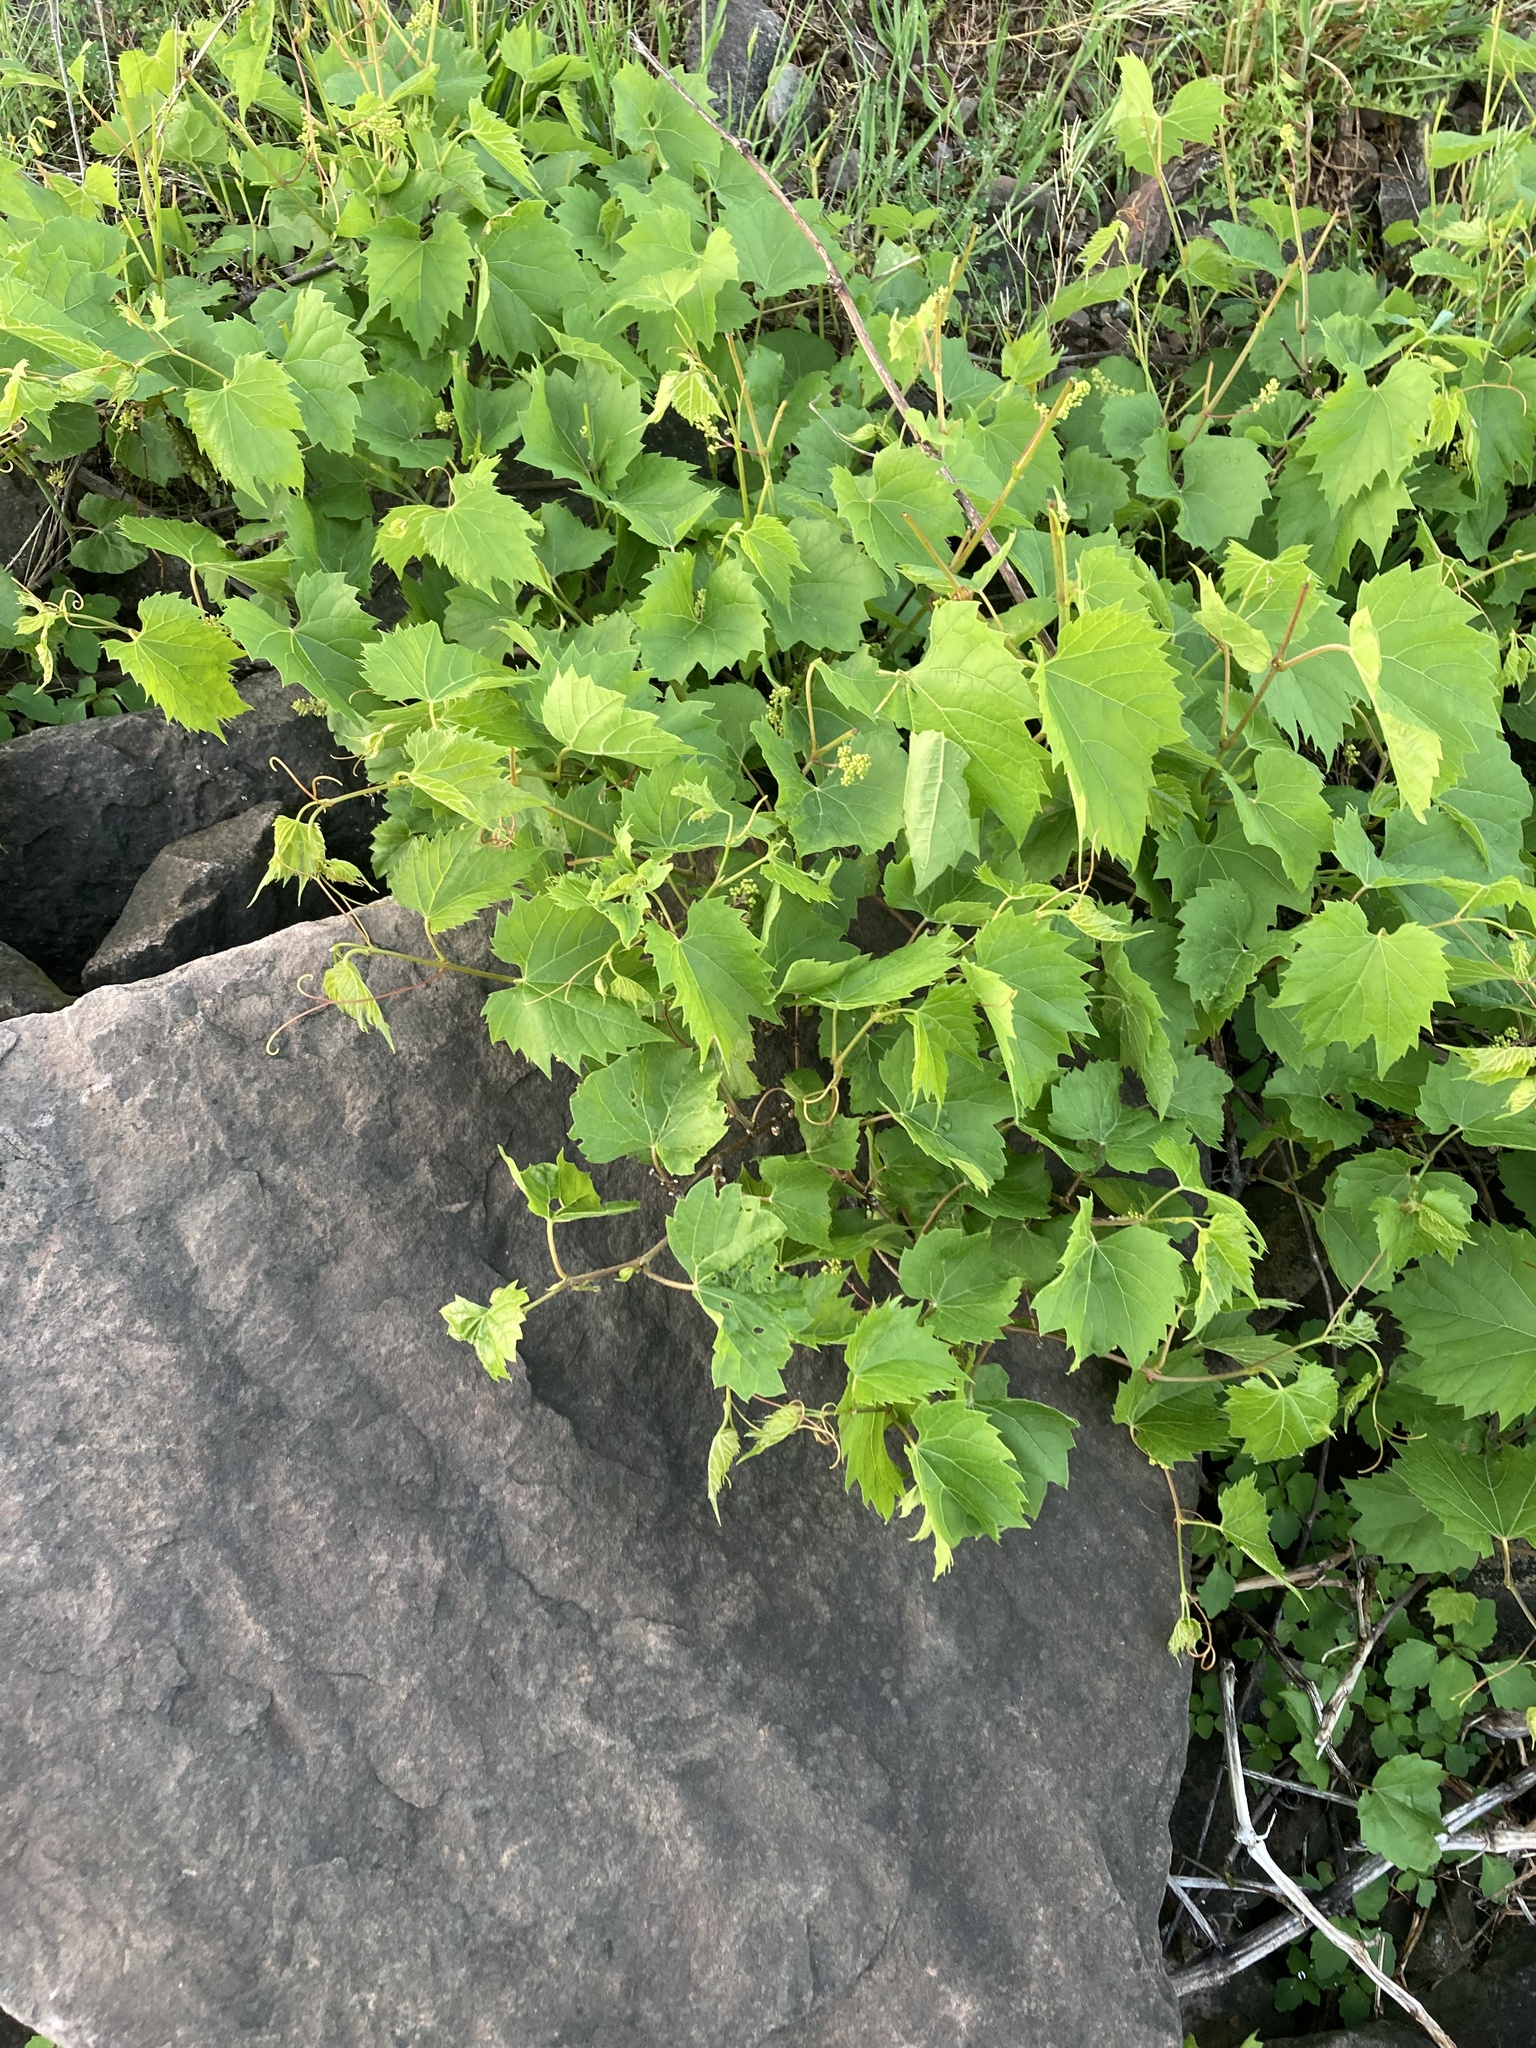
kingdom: Plantae
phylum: Tracheophyta
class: Magnoliopsida
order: Vitales
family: Vitaceae
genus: Vitis
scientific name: Vitis riparia
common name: Frost grape
